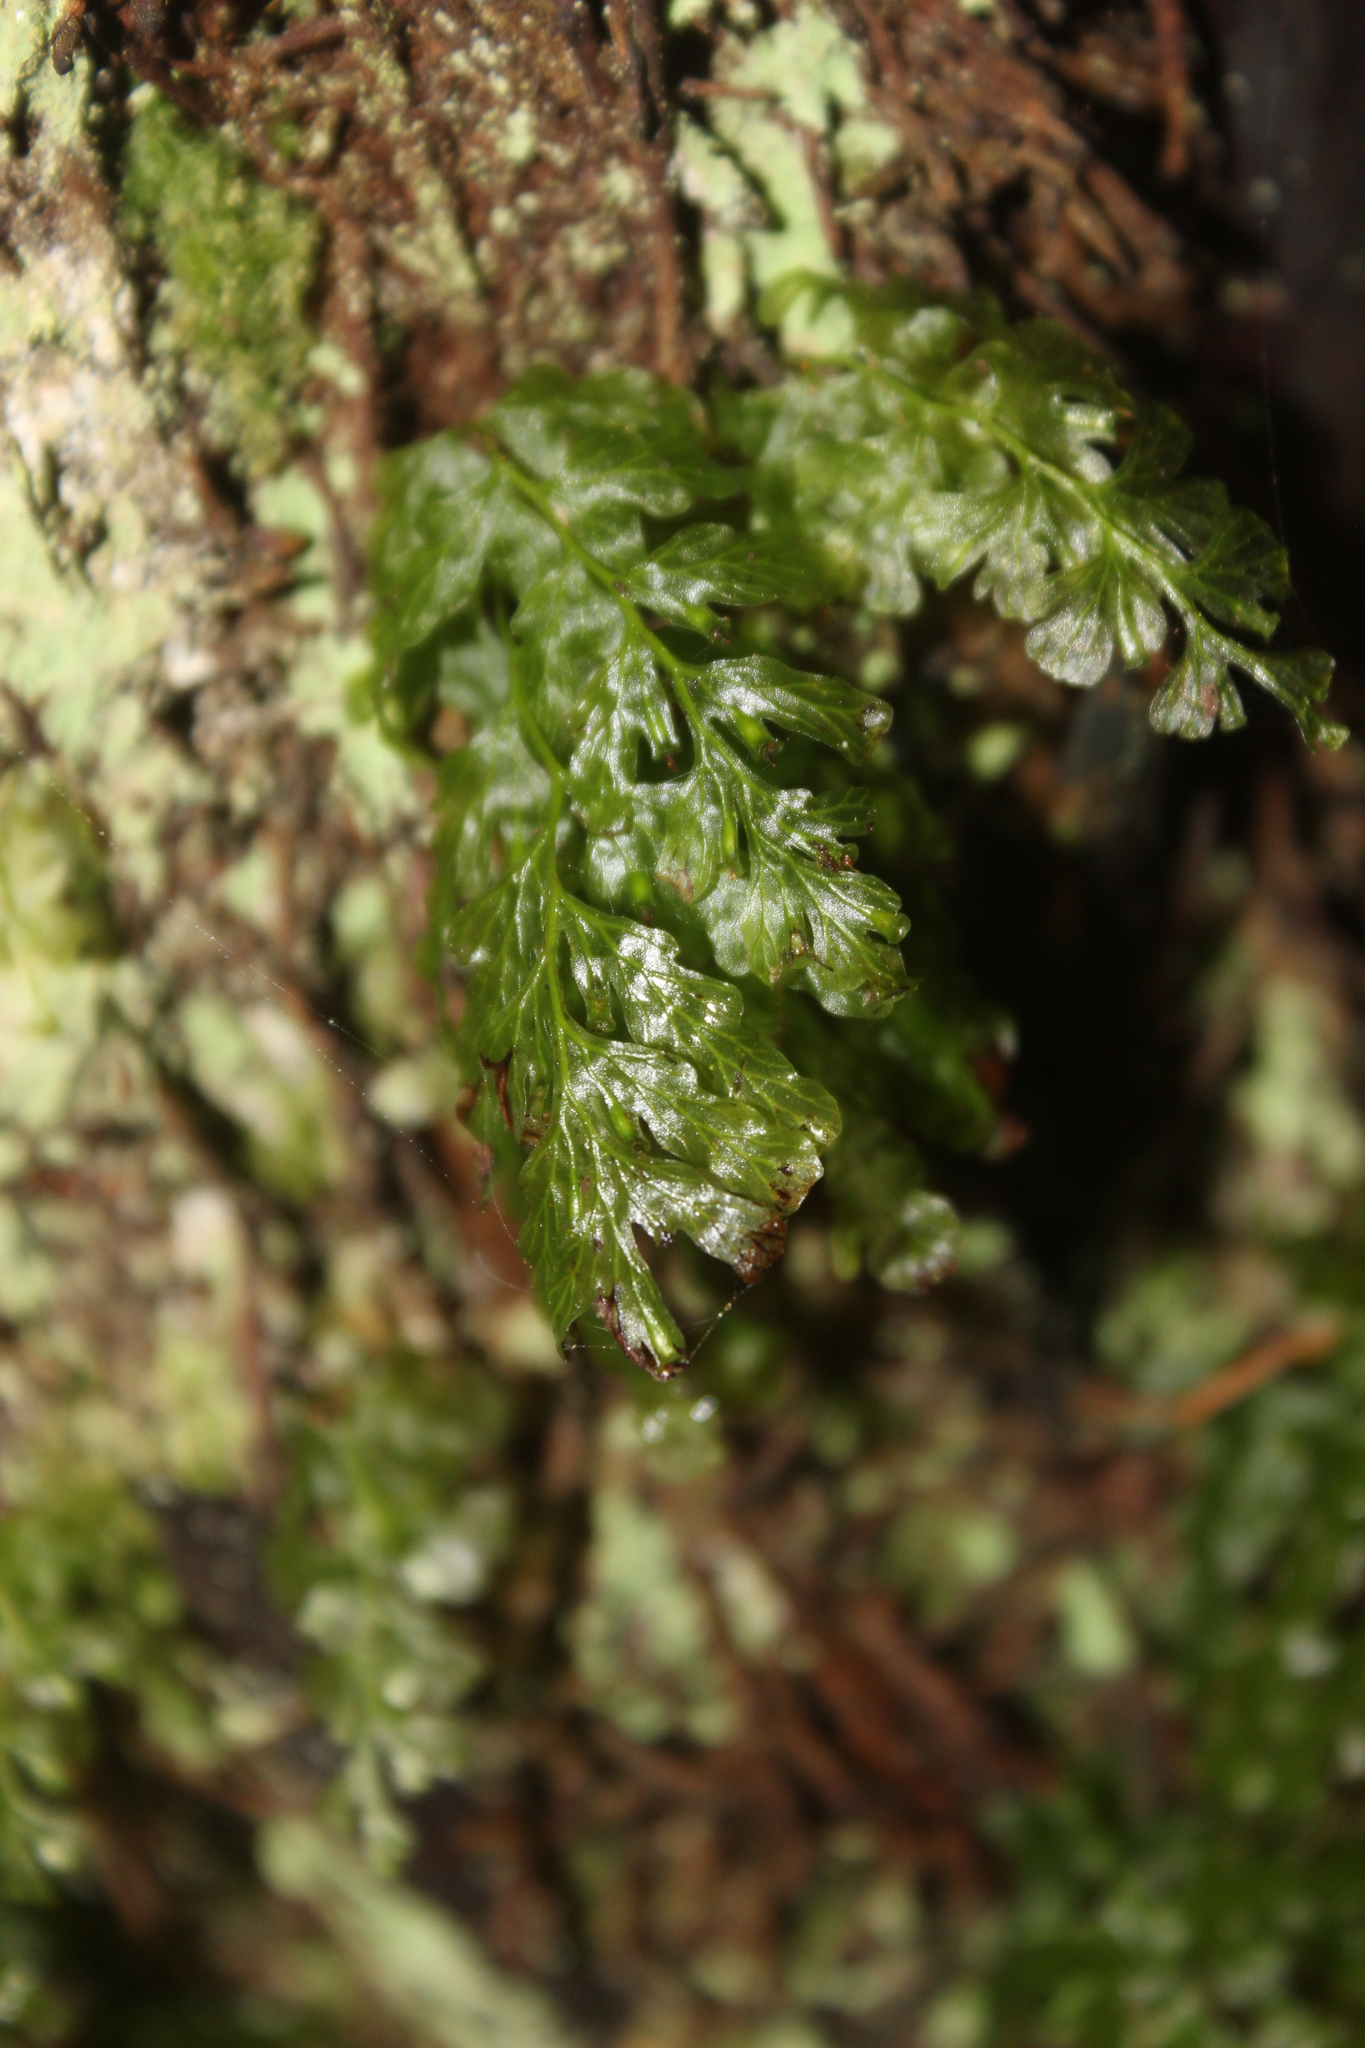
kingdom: Plantae
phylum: Tracheophyta
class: Polypodiopsida
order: Hymenophyllales
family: Hymenophyllaceae
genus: Polyphlebium
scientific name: Polyphlebium venosum
